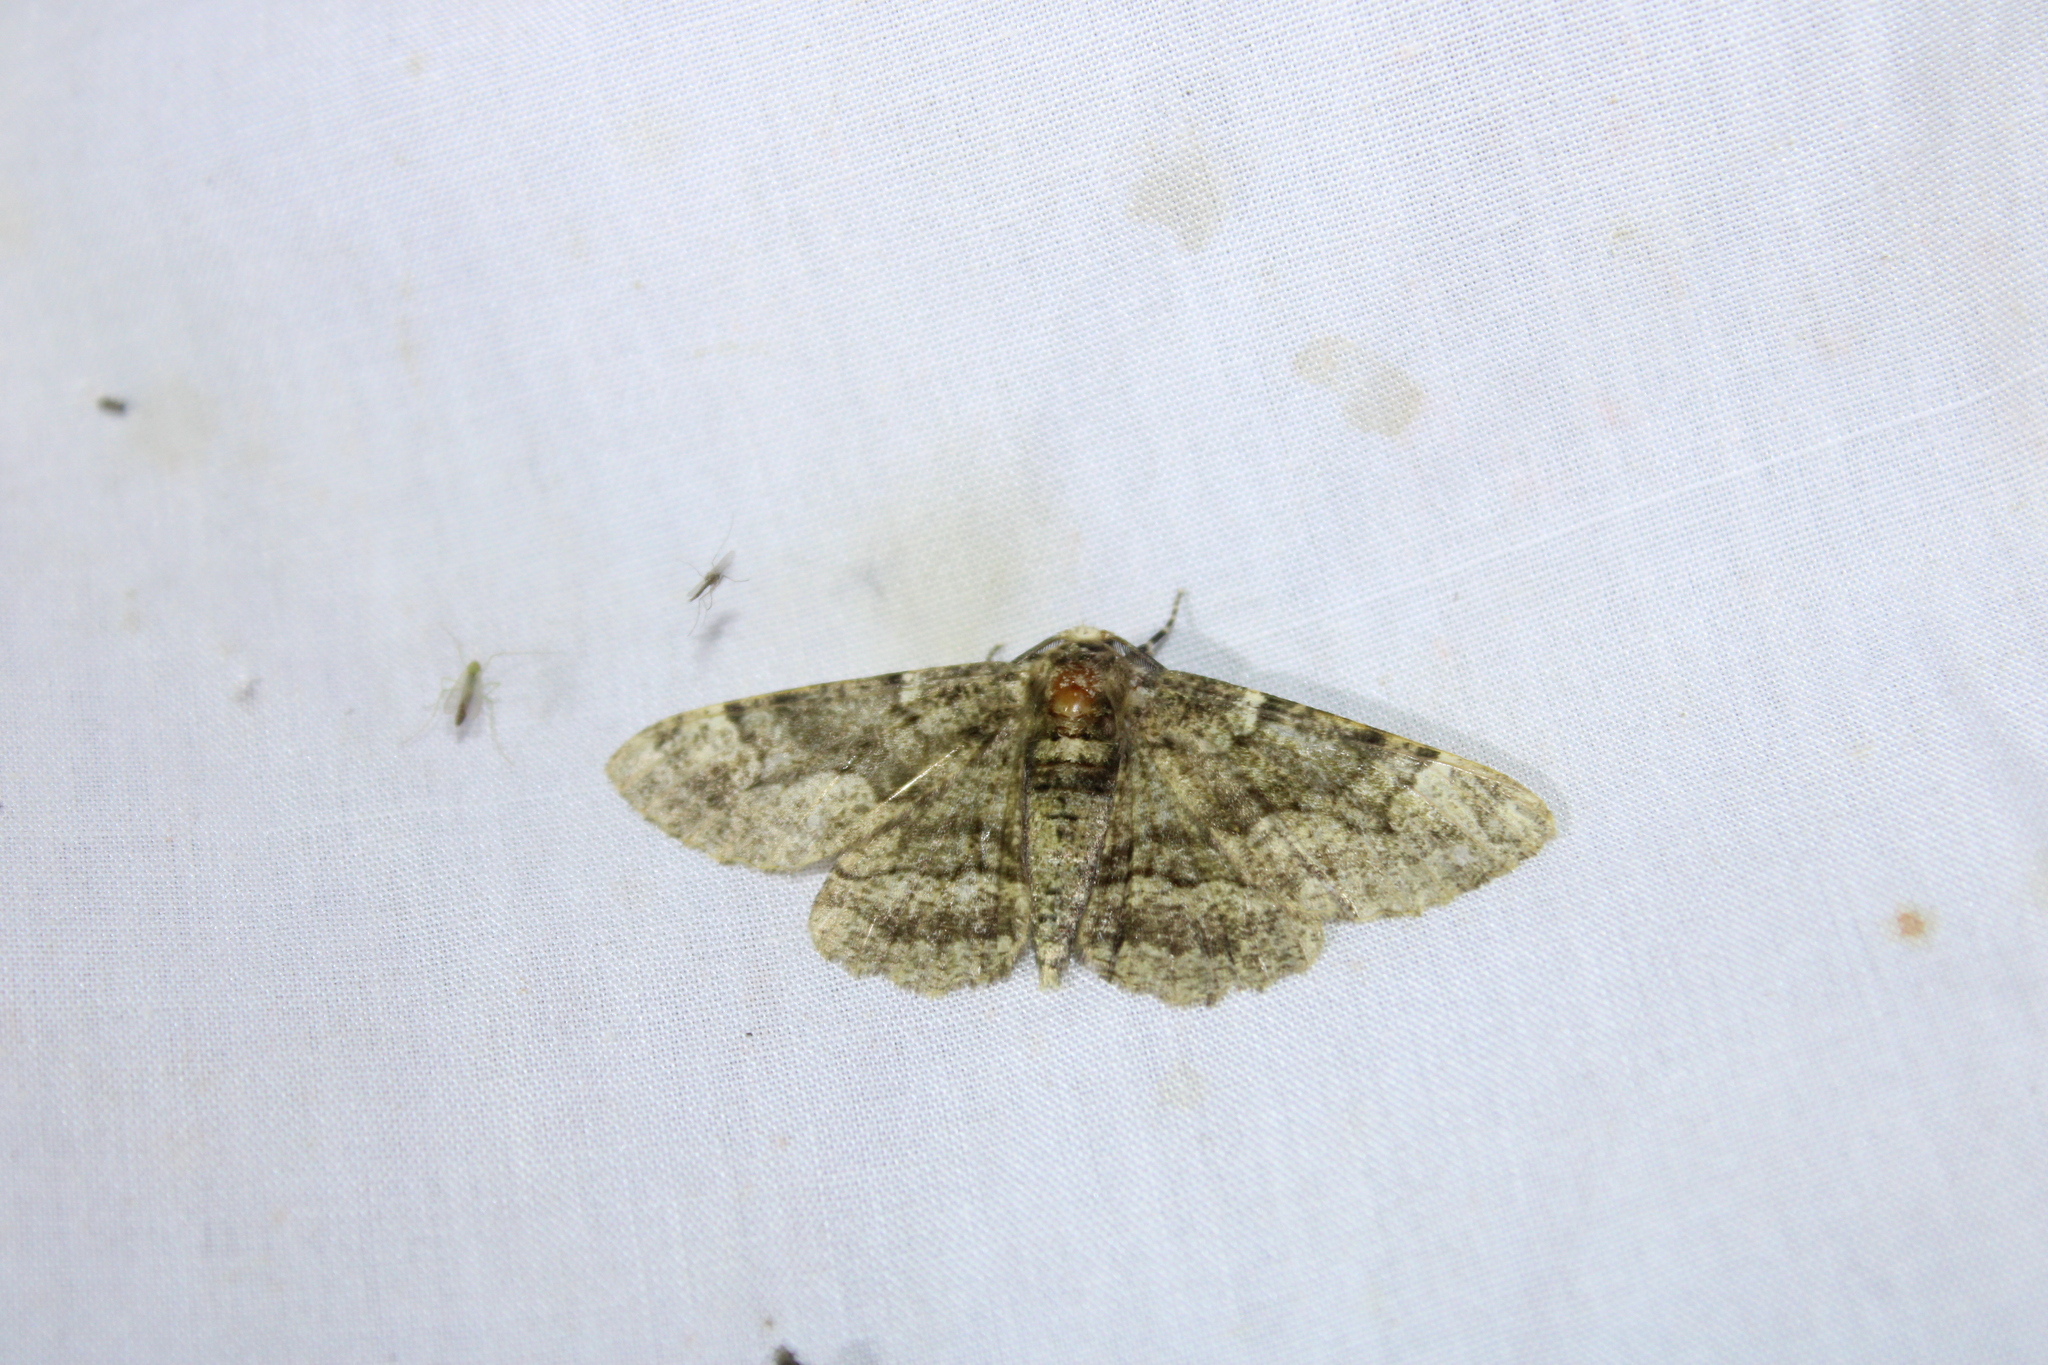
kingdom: Animalia
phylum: Arthropoda
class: Insecta
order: Lepidoptera
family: Geometridae
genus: Phaeoura
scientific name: Phaeoura quernaria
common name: Oak beauty
